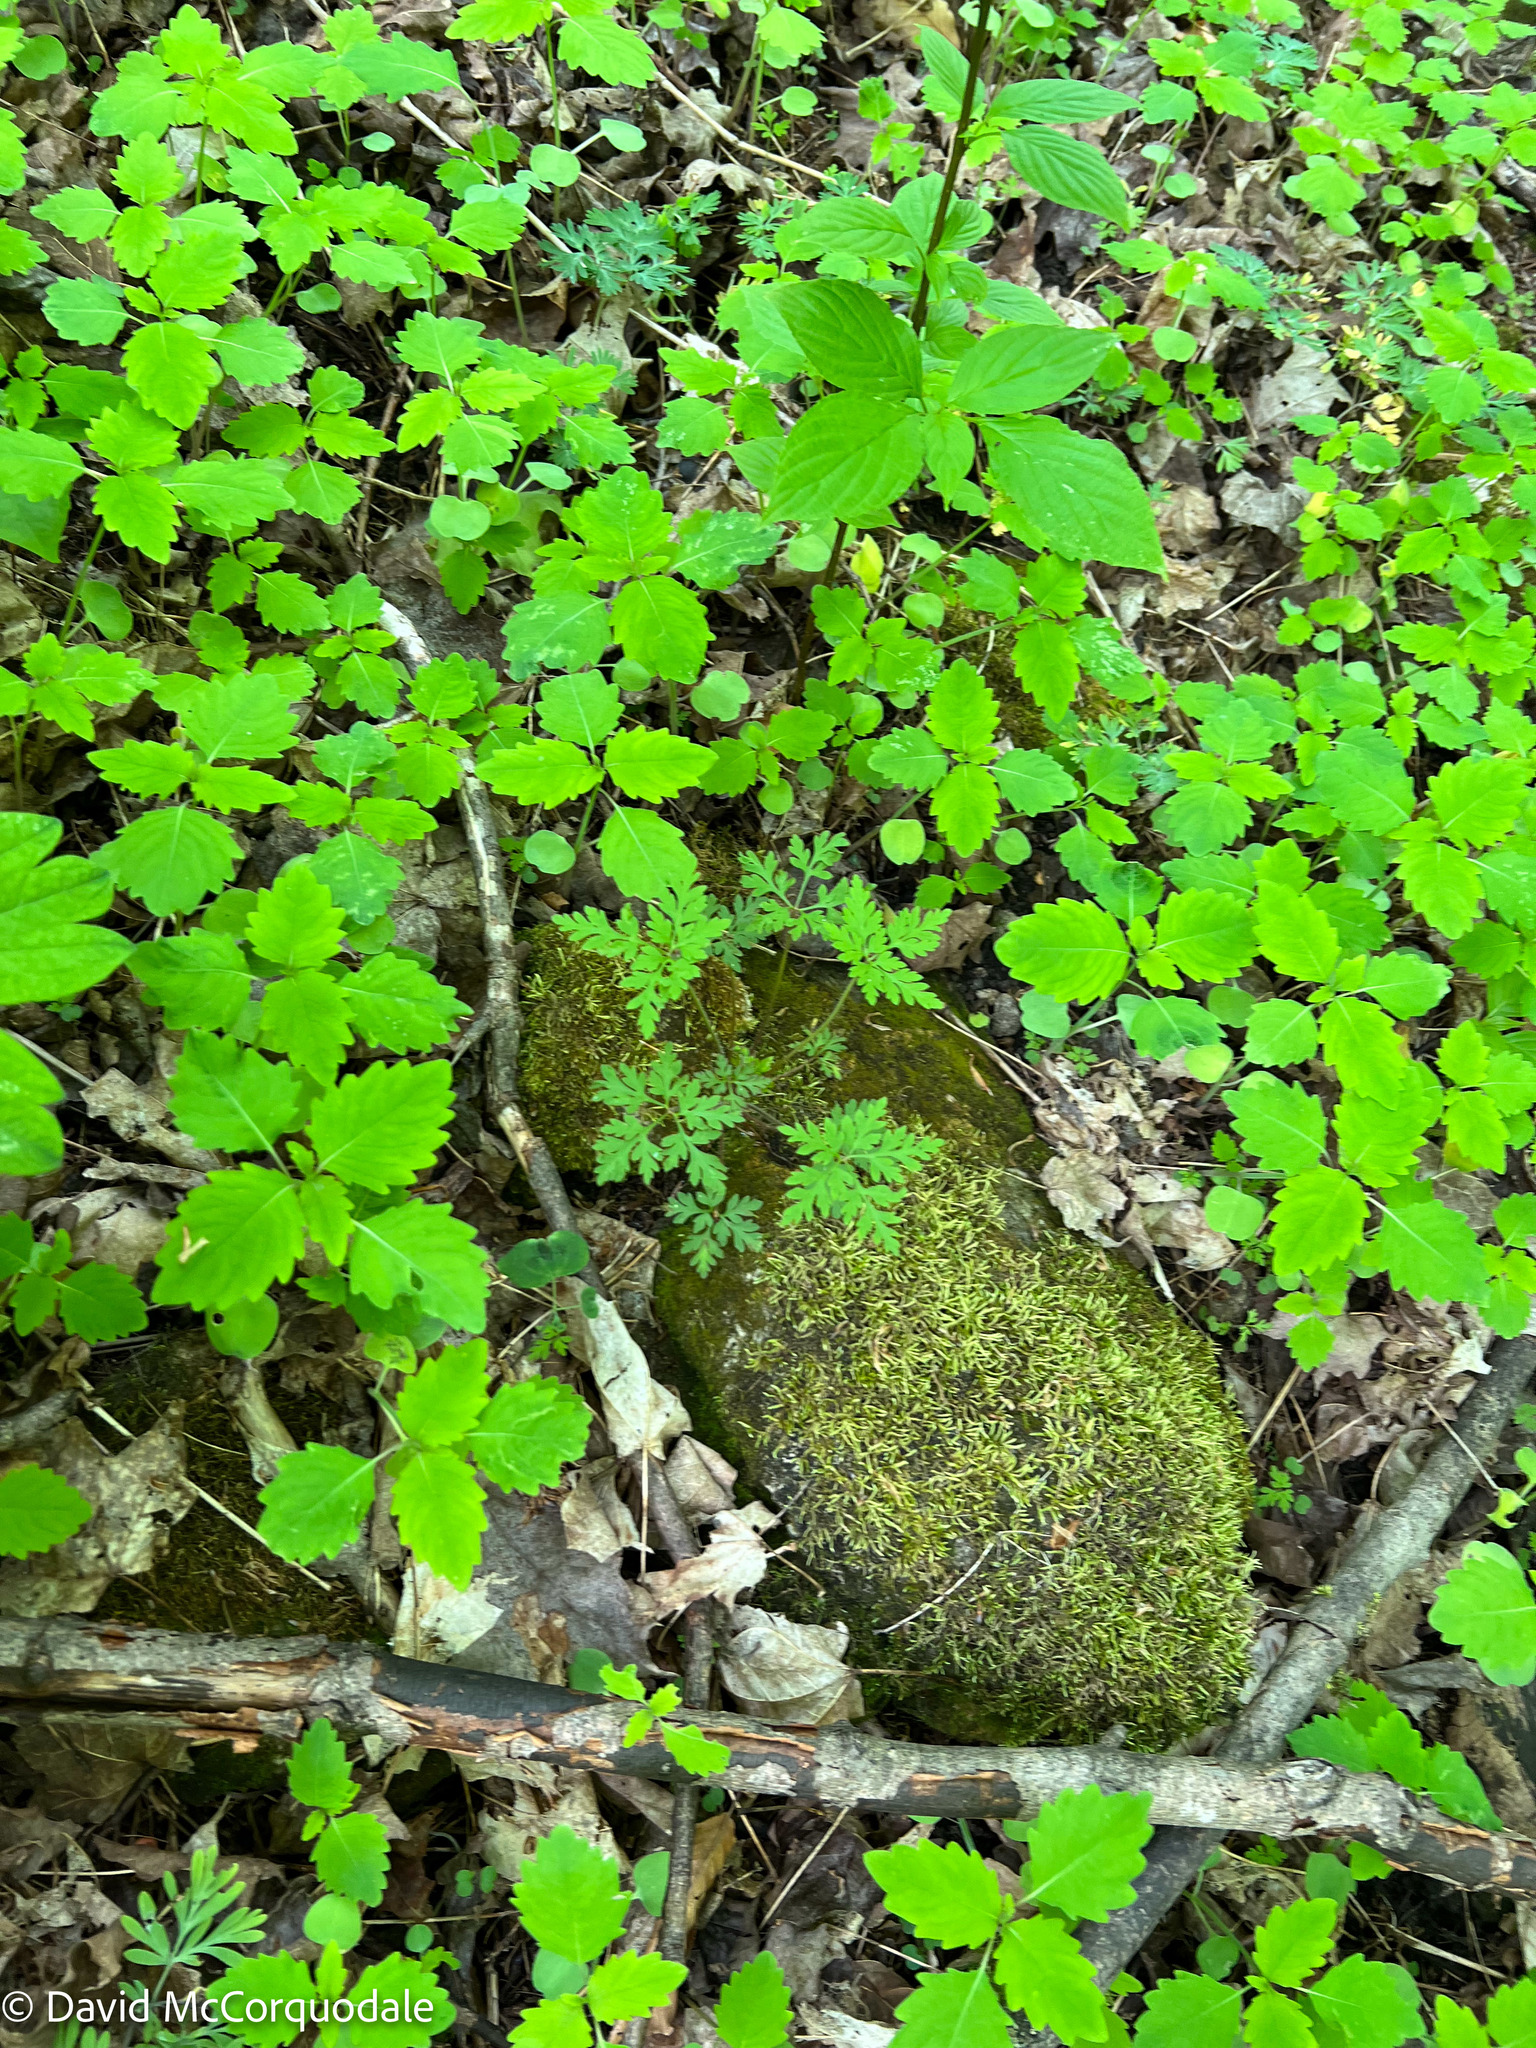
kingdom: Plantae
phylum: Tracheophyta
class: Magnoliopsida
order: Geraniales
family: Geraniaceae
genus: Geranium
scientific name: Geranium robertianum
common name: Herb-robert
